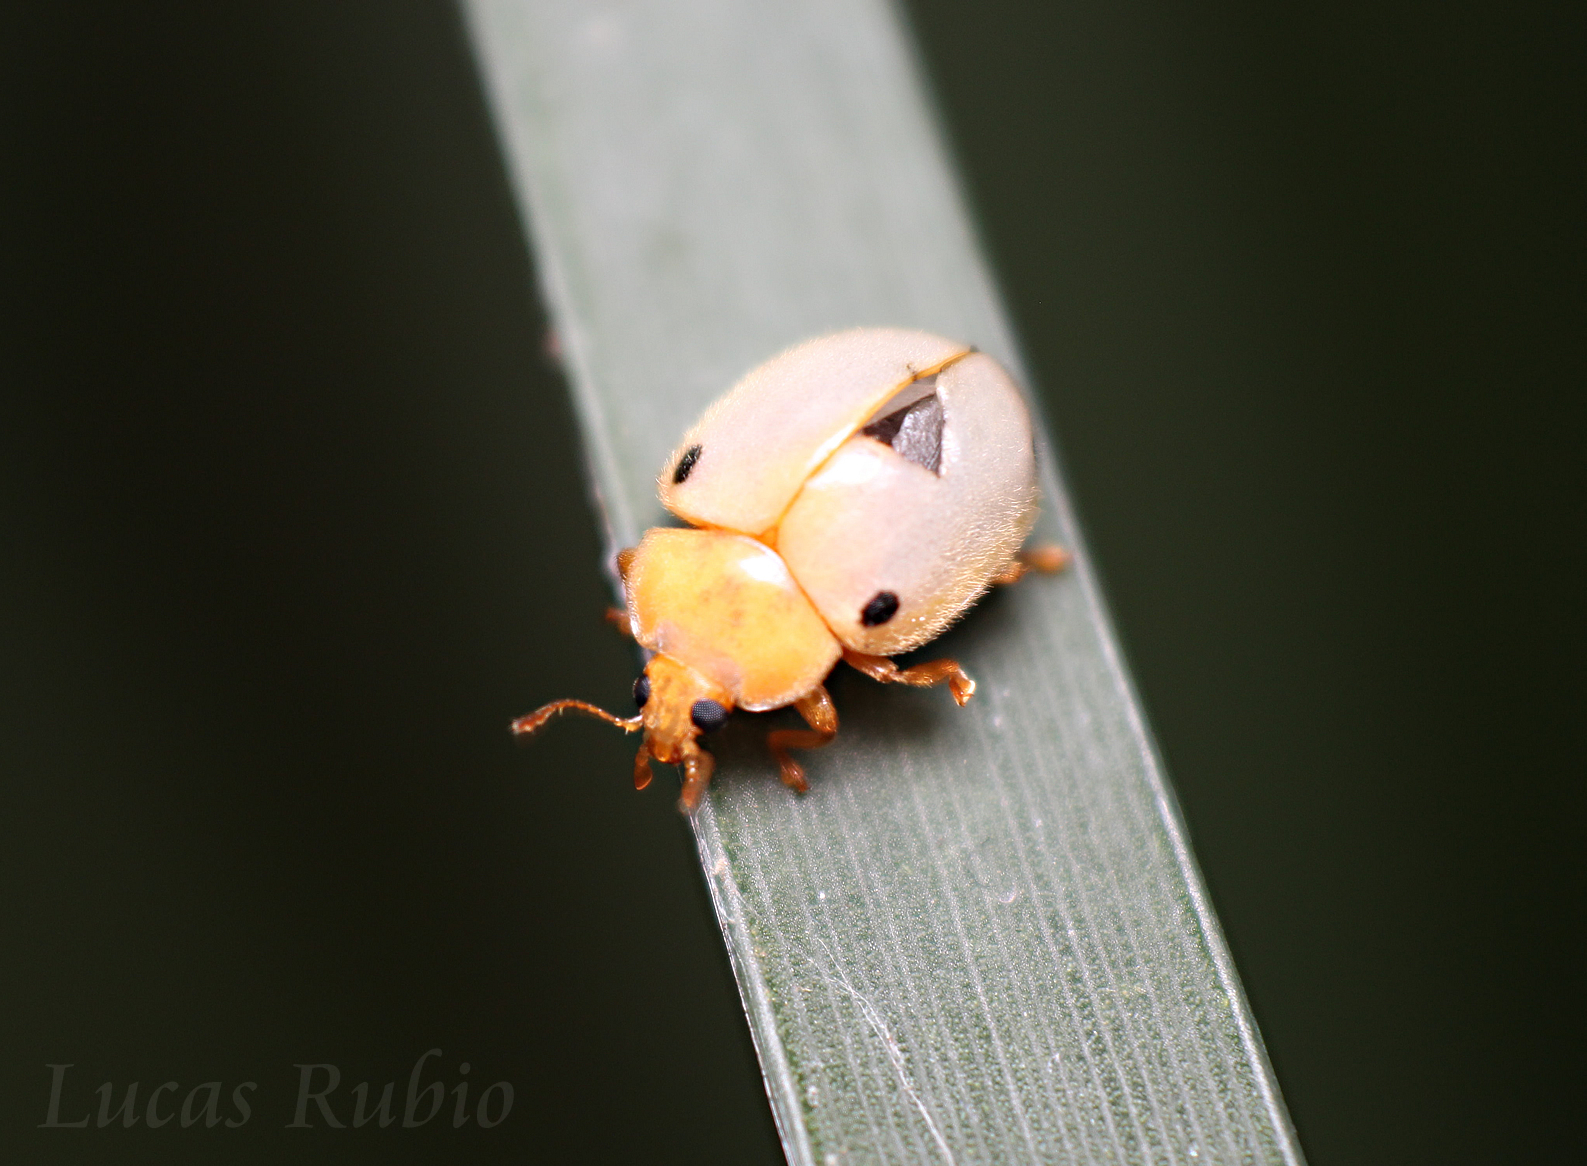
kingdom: Animalia
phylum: Arthropoda
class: Insecta
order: Coleoptera
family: Coccinellidae
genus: Eupalea
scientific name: Eupalea
